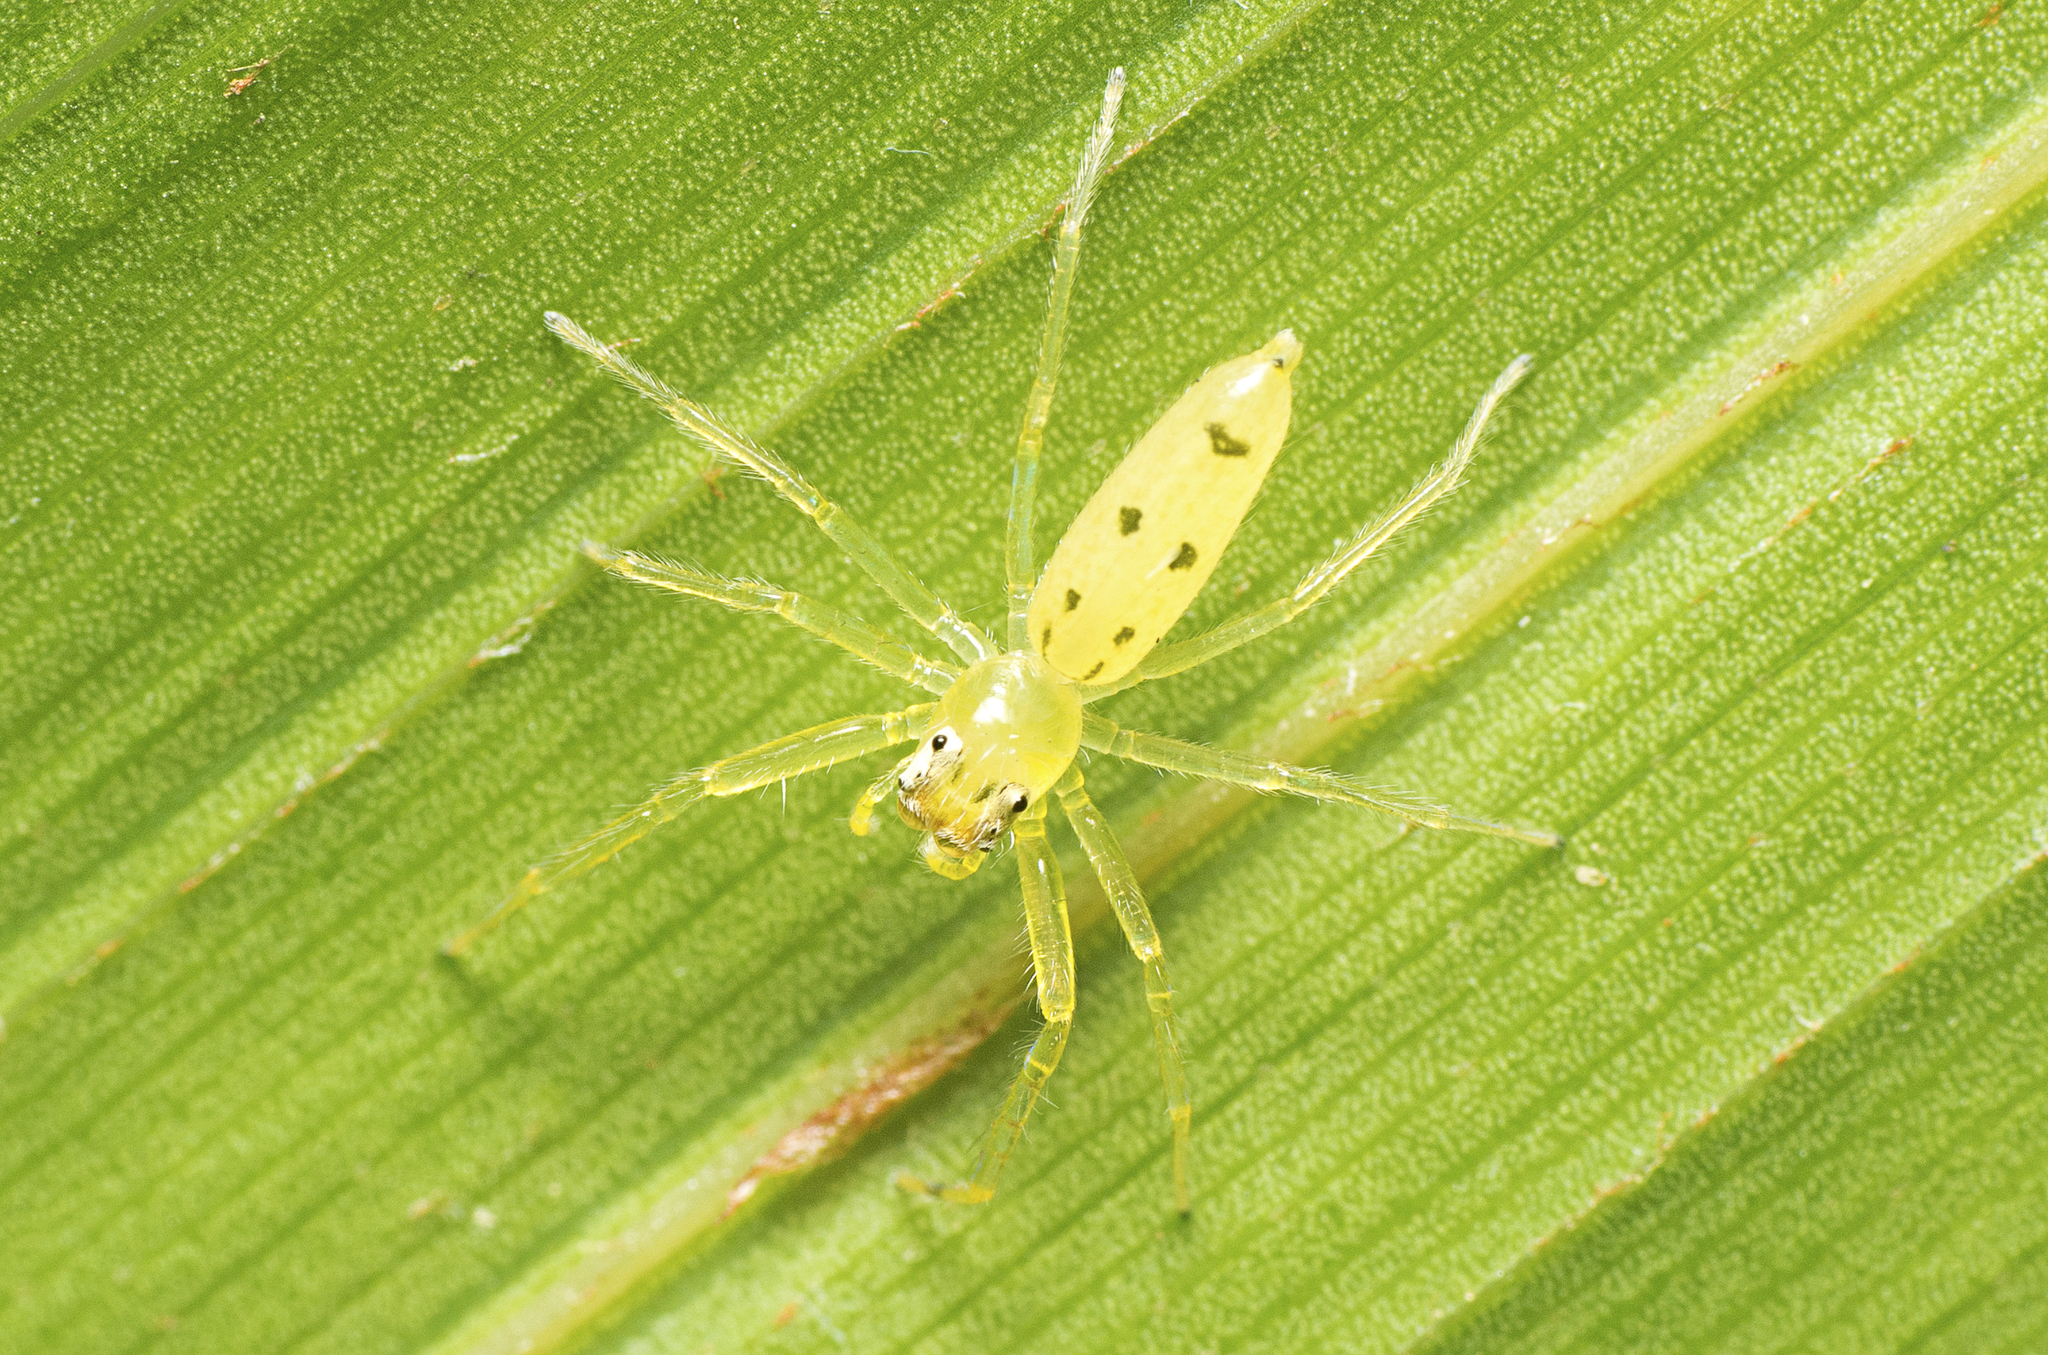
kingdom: Animalia
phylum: Arthropoda
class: Arachnida
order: Araneae
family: Salticidae
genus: Astilodes
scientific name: Astilodes mariae
